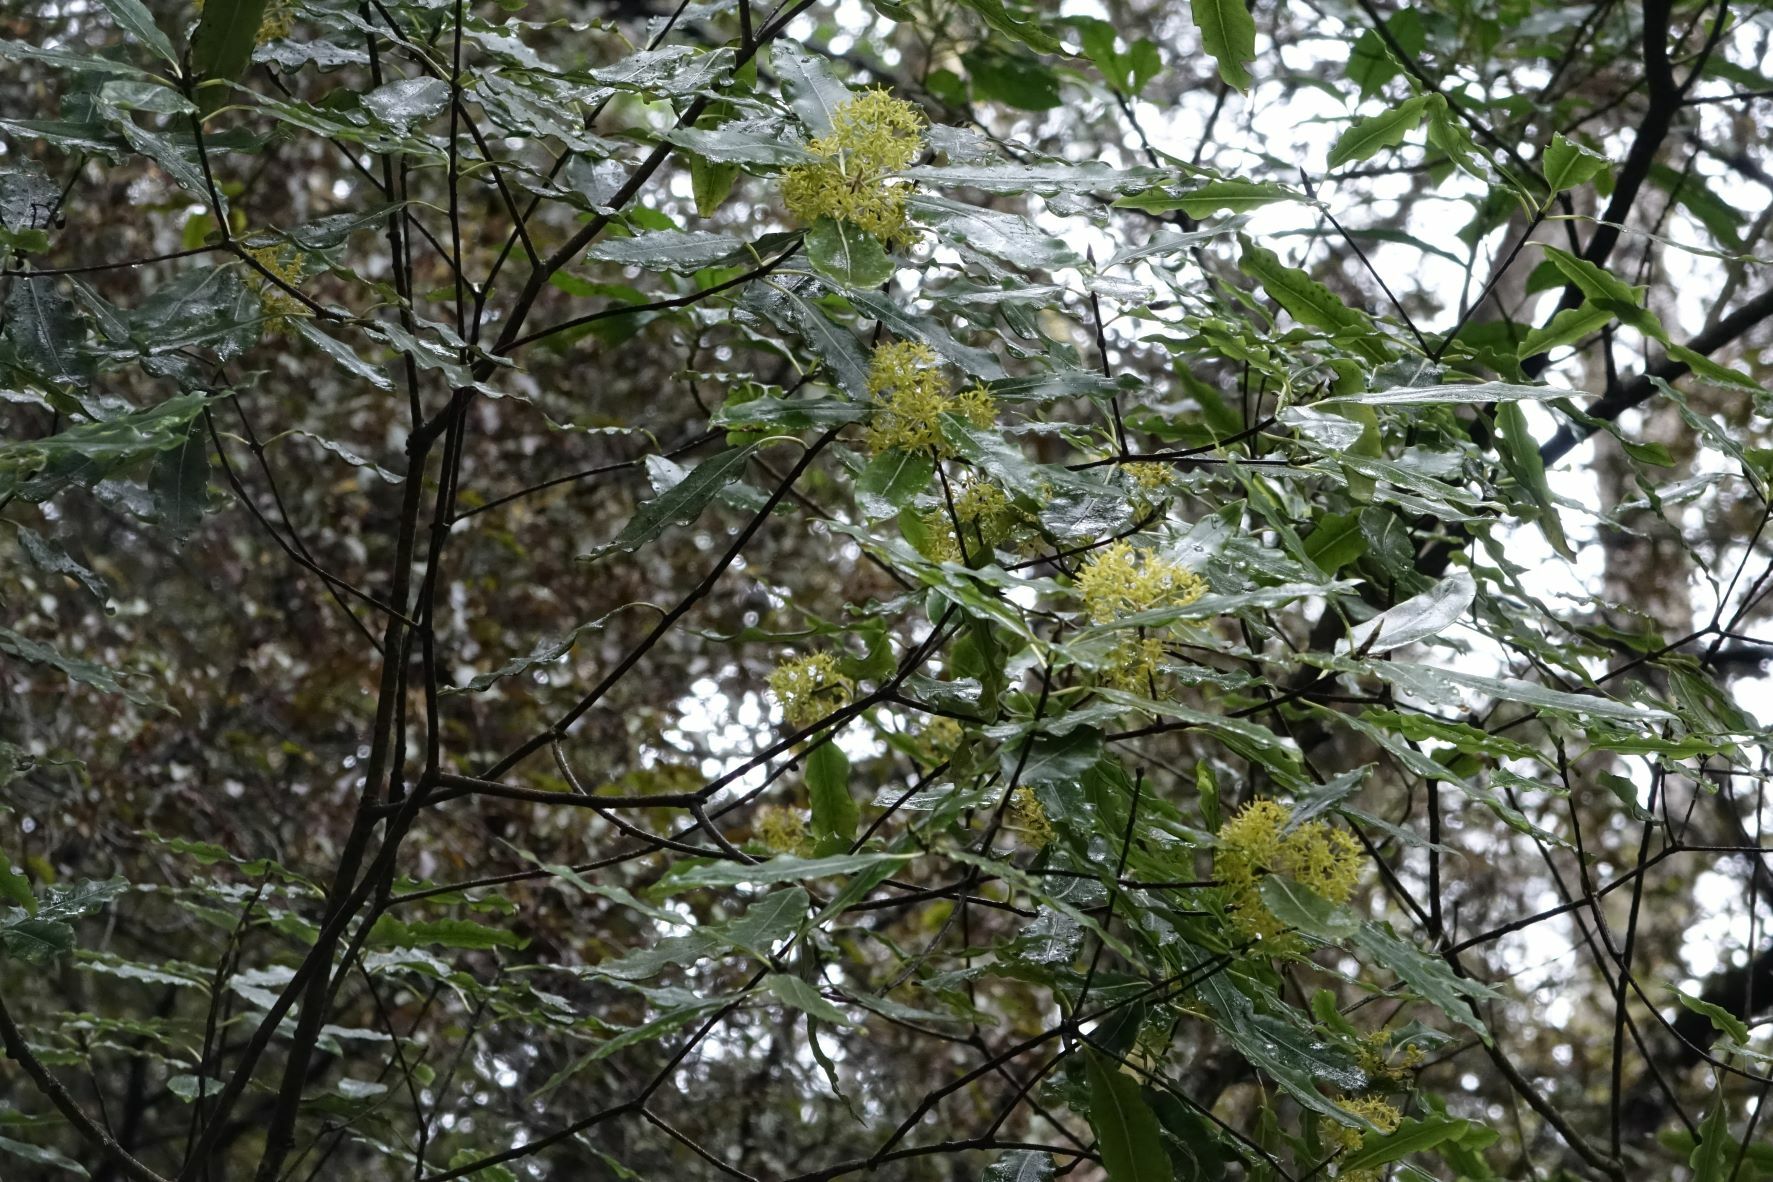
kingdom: Plantae
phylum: Tracheophyta
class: Magnoliopsida
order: Apiales
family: Pittosporaceae
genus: Pittosporum
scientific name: Pittosporum eugenioides
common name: Lemonwood
